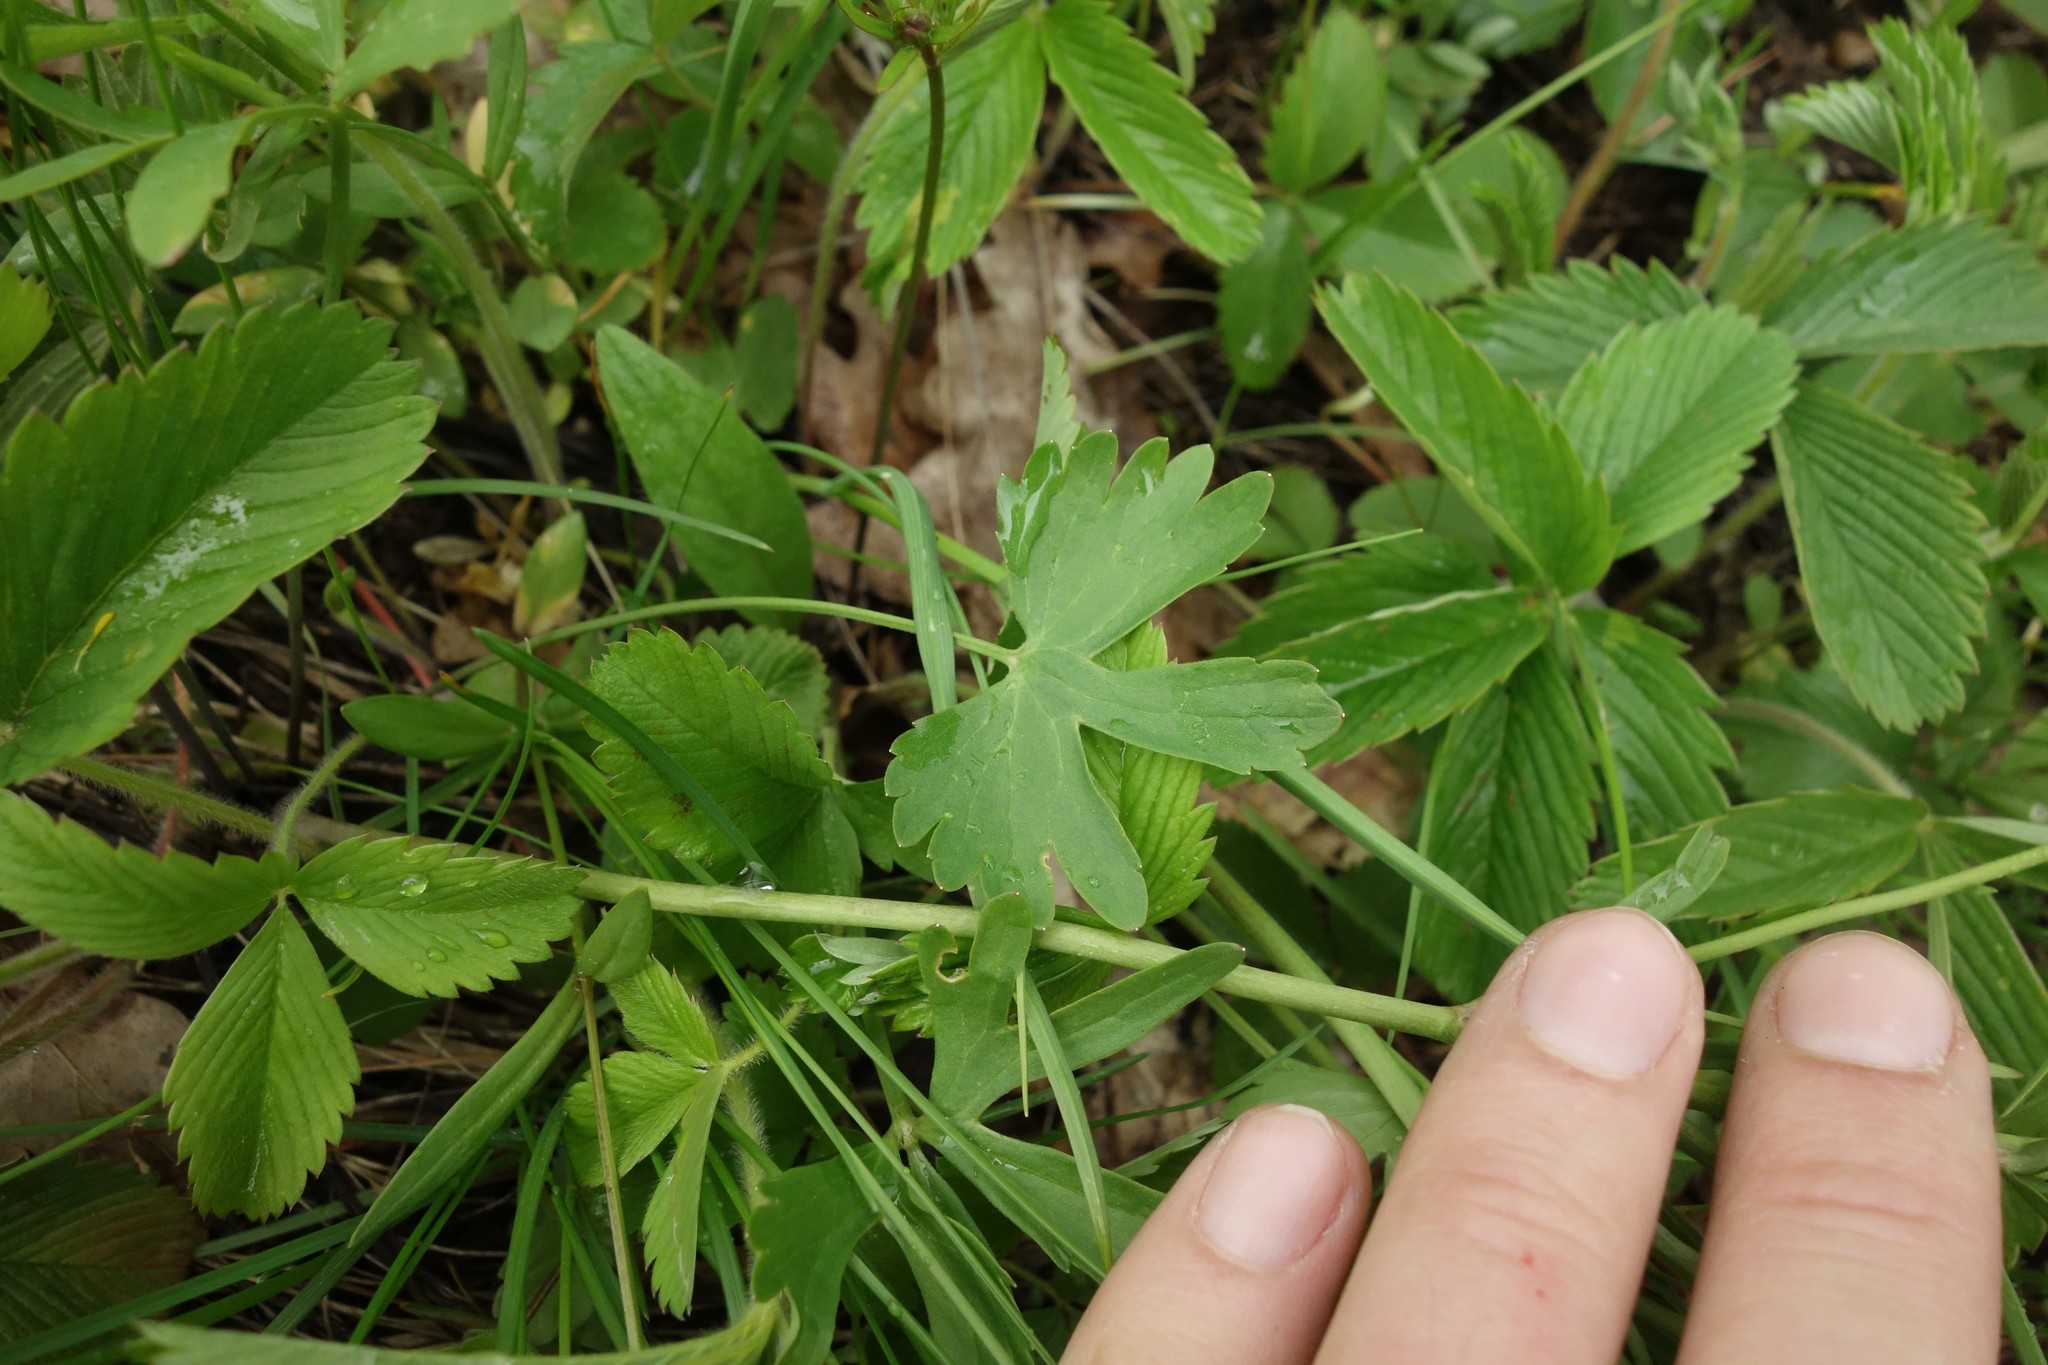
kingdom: Plantae
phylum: Tracheophyta
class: Magnoliopsida
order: Ranunculales
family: Ranunculaceae
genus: Ranunculus
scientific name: Ranunculus auricomus
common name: Goldilocks buttercup
